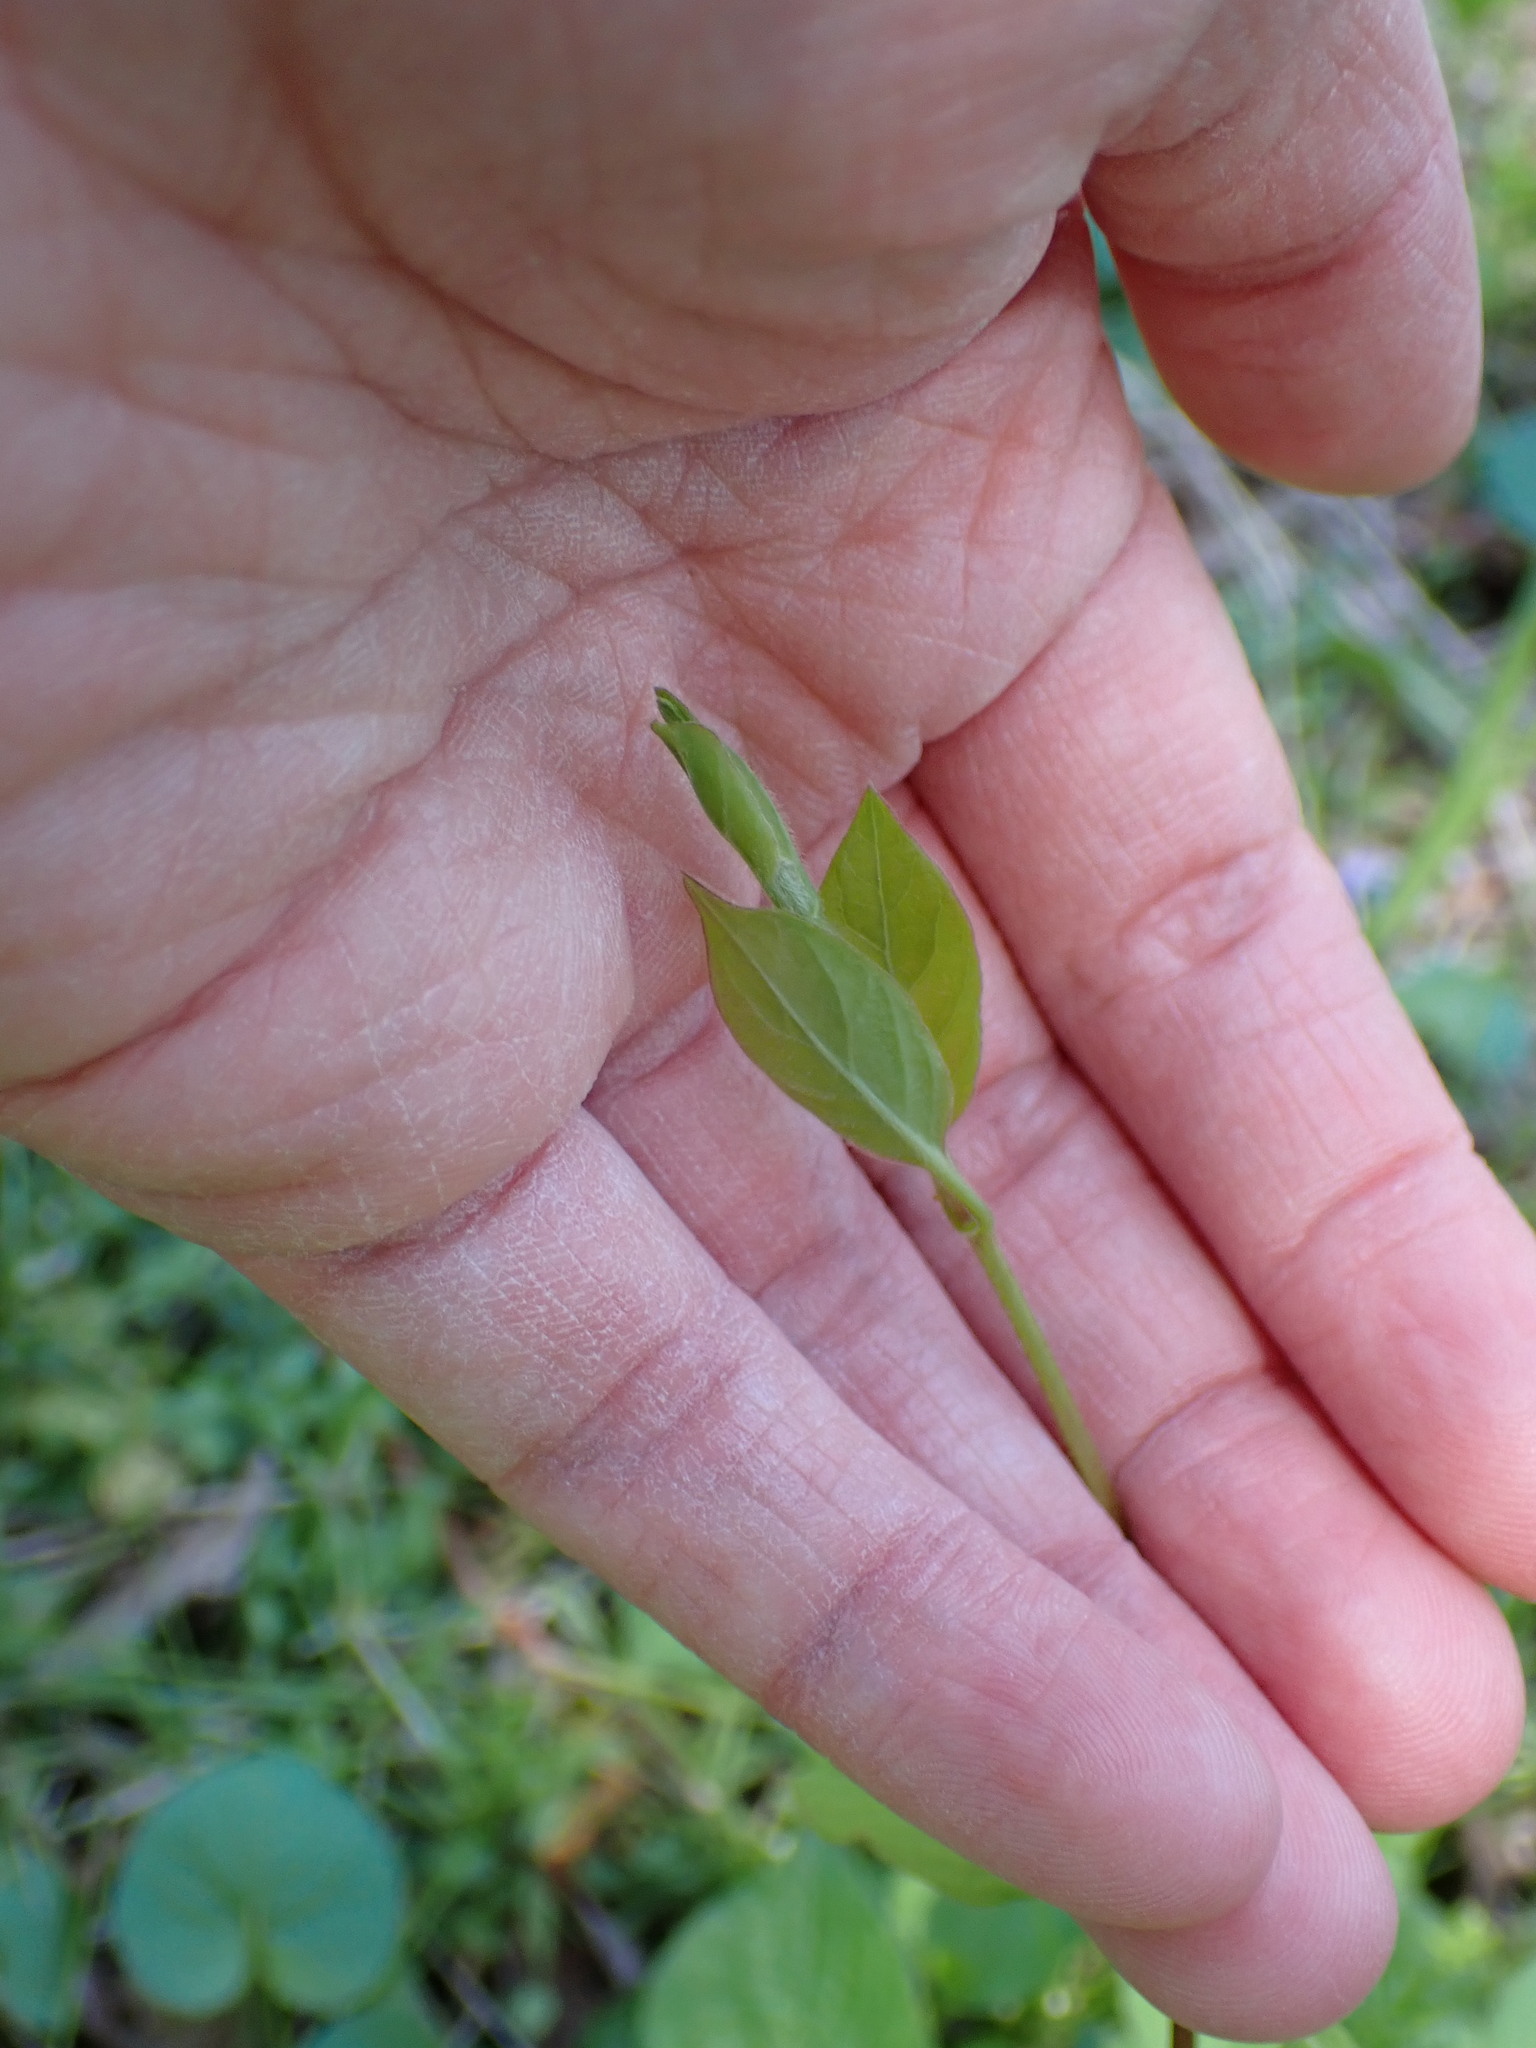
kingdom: Plantae
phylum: Tracheophyta
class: Magnoliopsida
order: Dipsacales
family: Caprifoliaceae
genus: Lonicera
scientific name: Lonicera japonica
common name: Japanese honeysuckle
